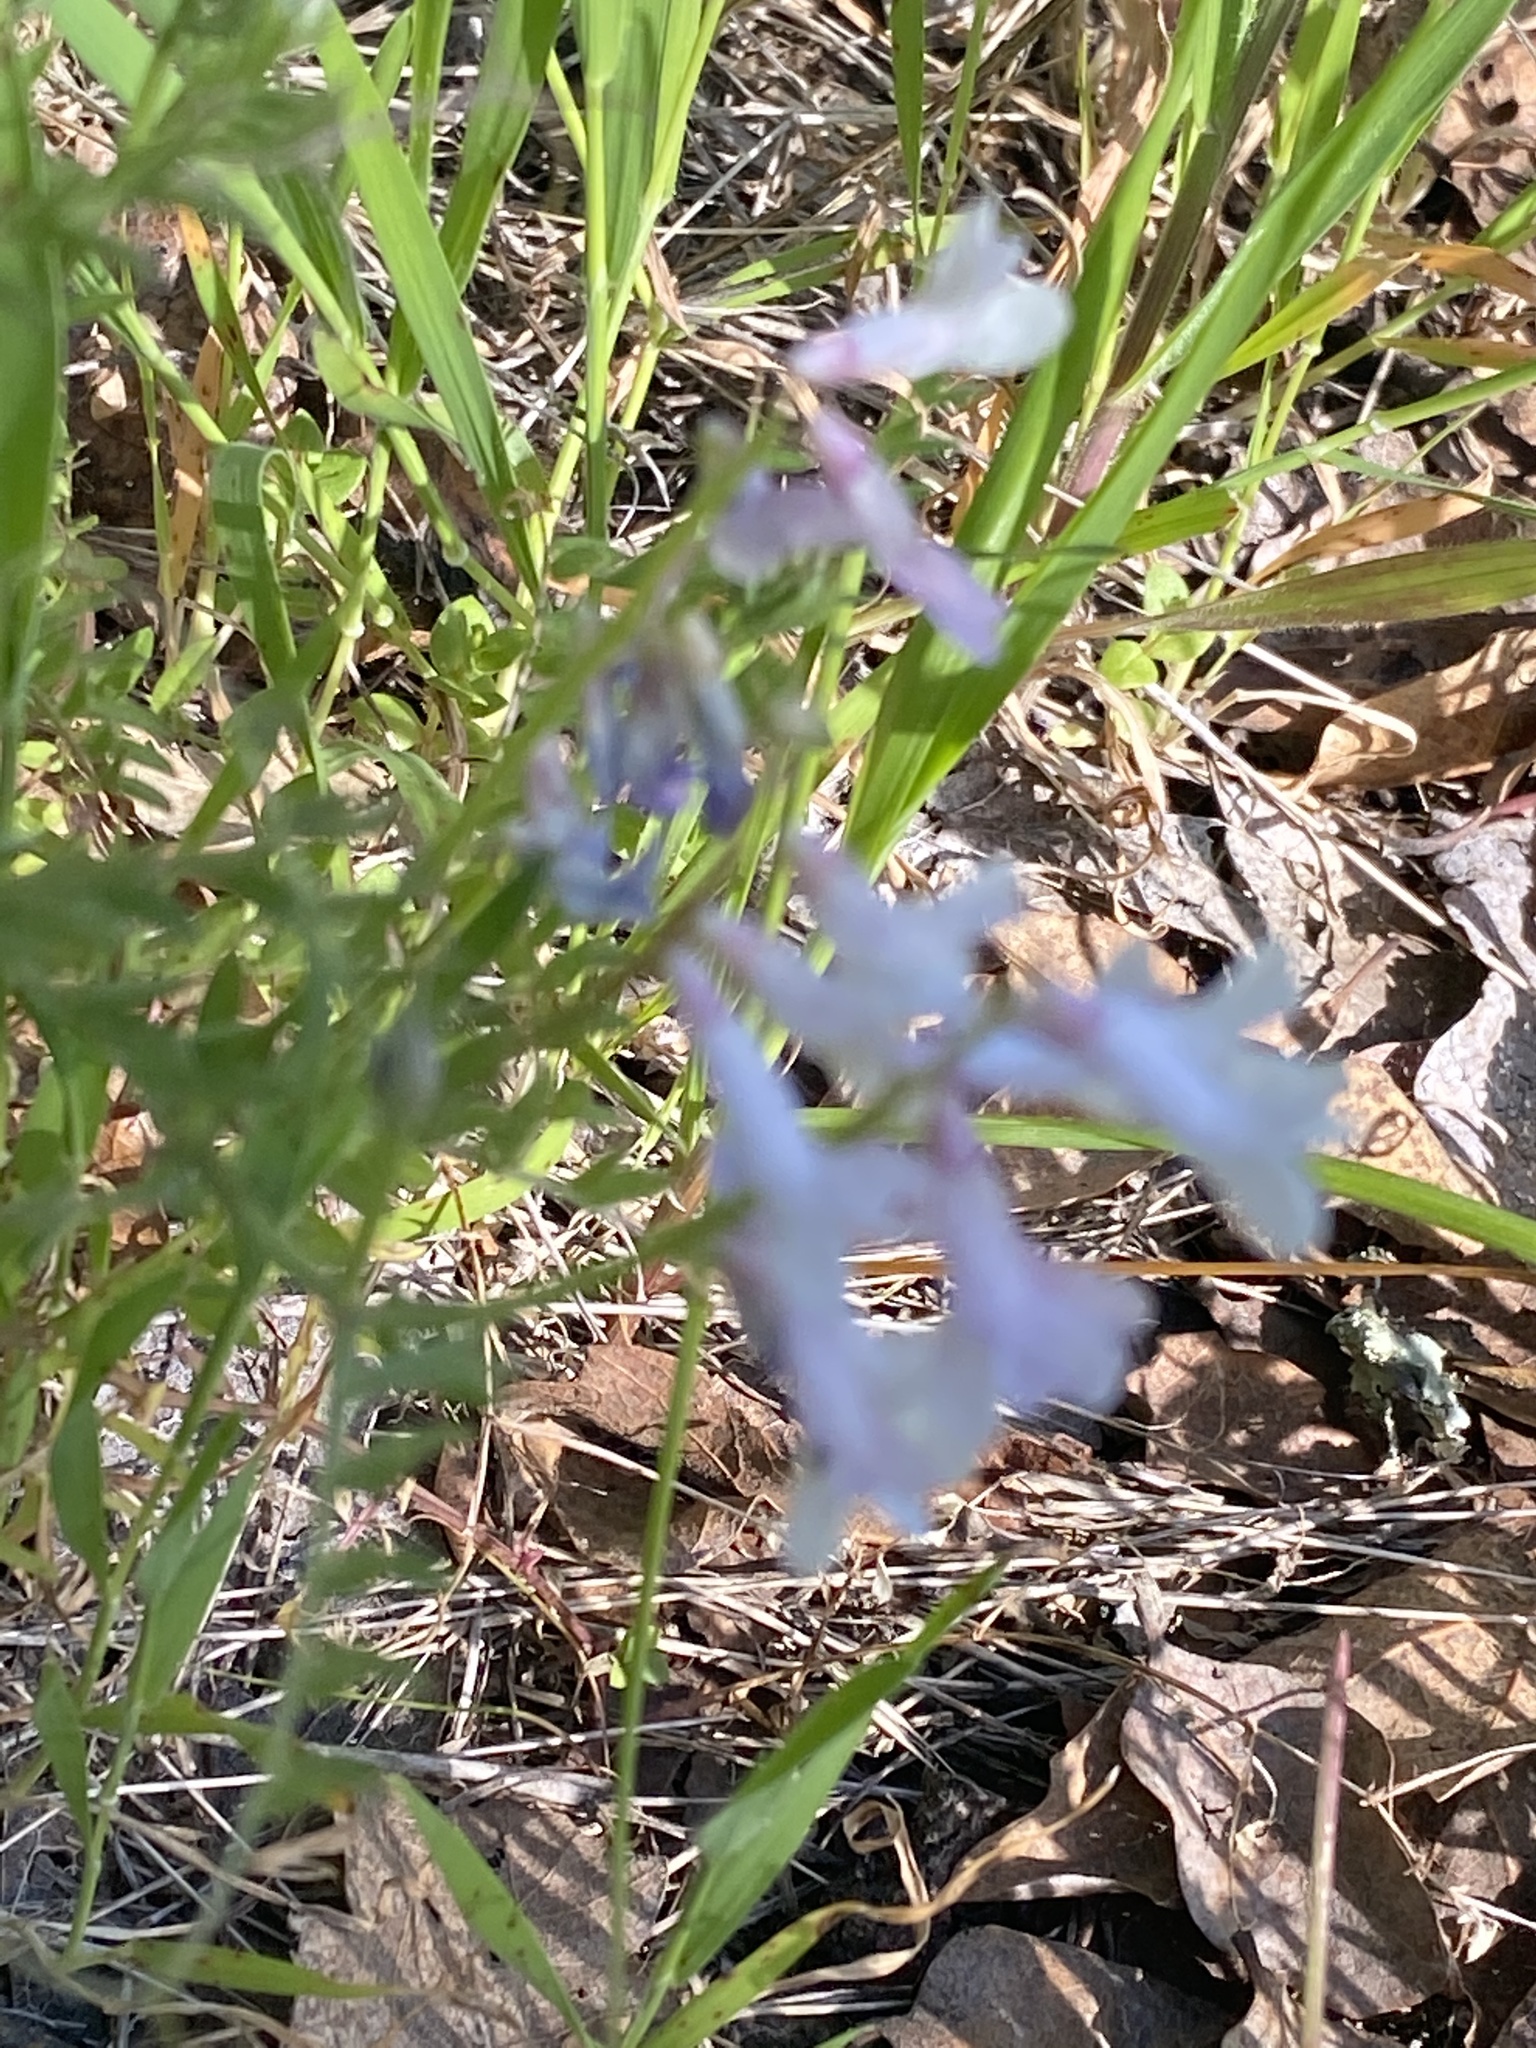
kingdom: Plantae
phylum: Tracheophyta
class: Magnoliopsida
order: Fabales
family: Fabaceae
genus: Vicia
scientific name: Vicia villosa
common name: Fodder vetch
